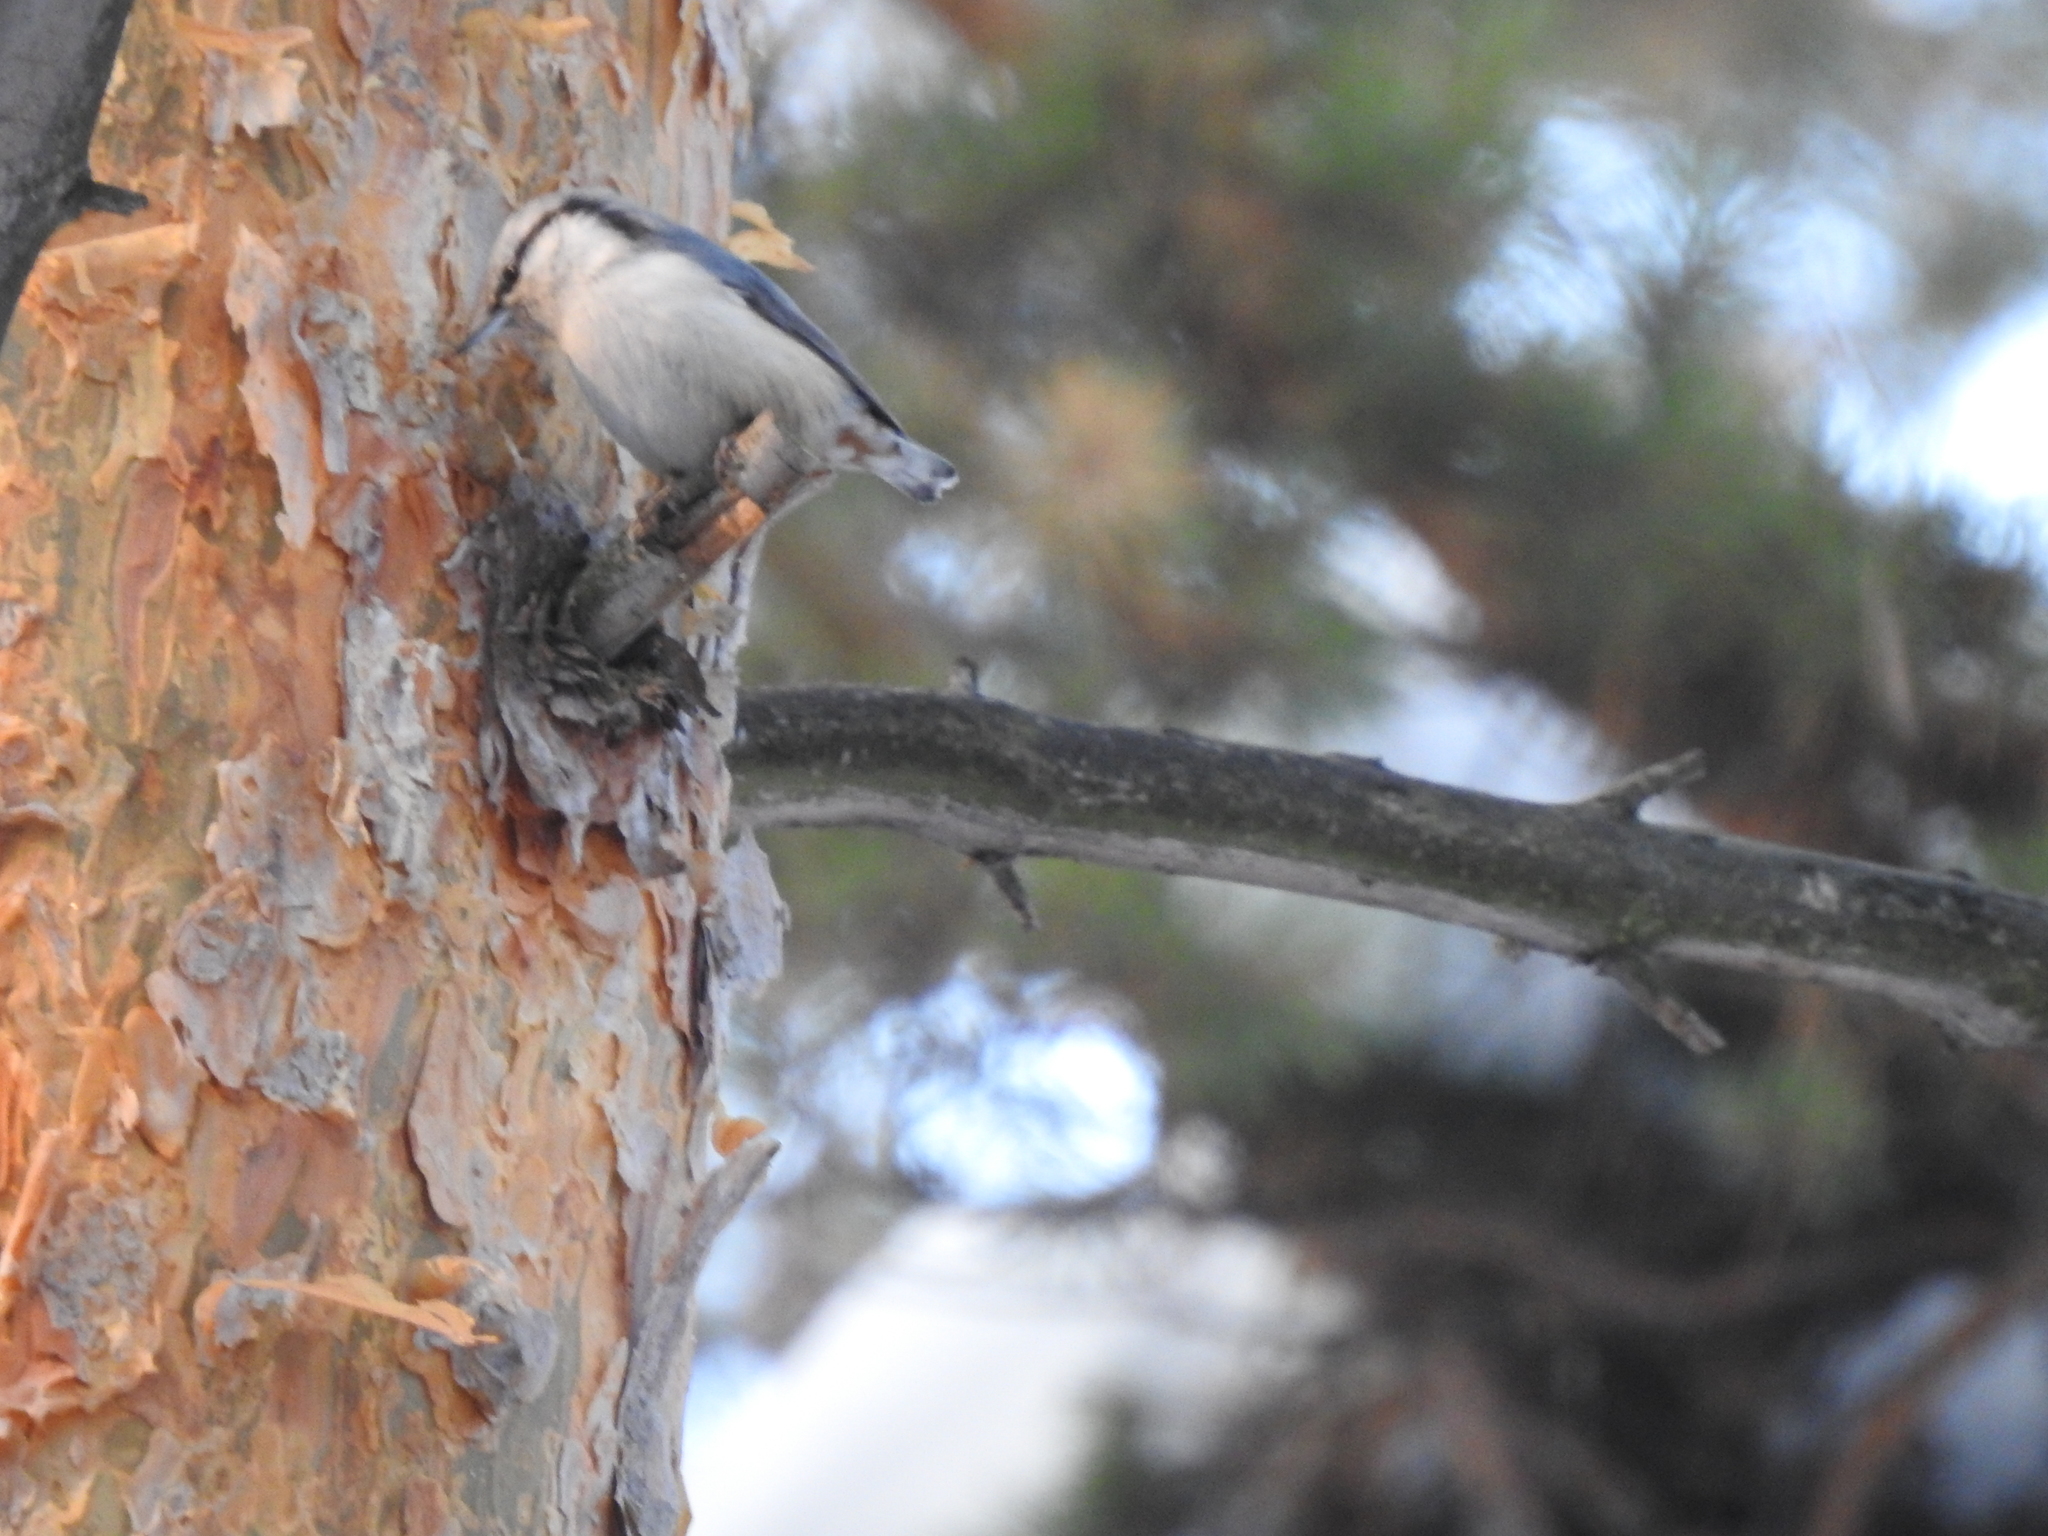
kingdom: Animalia
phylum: Chordata
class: Aves
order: Passeriformes
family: Sittidae
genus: Sitta
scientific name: Sitta europaea
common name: Eurasian nuthatch
